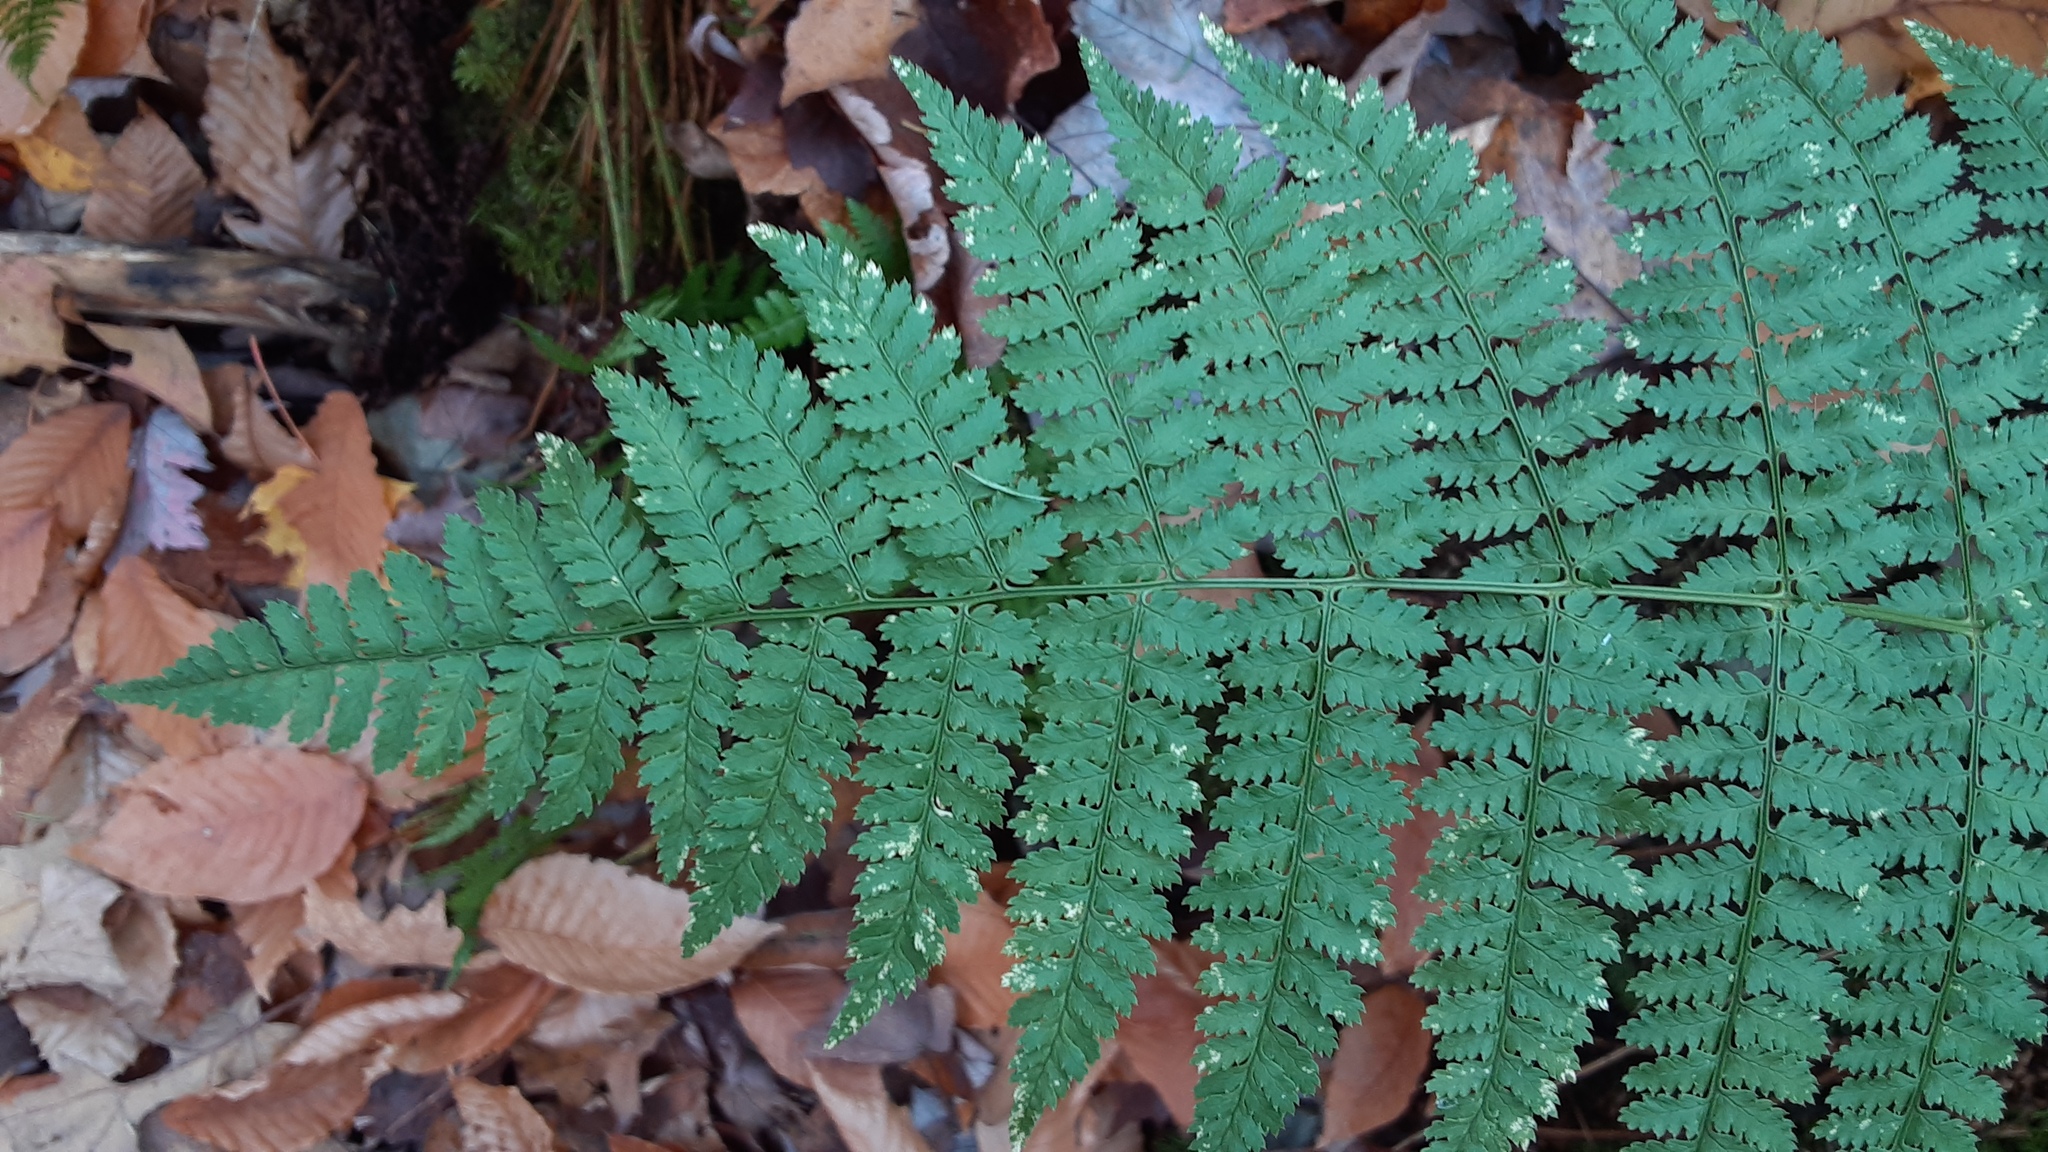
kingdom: Plantae
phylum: Tracheophyta
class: Polypodiopsida
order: Polypodiales
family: Dryopteridaceae
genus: Dryopteris
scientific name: Dryopteris intermedia
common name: Evergreen wood fern
